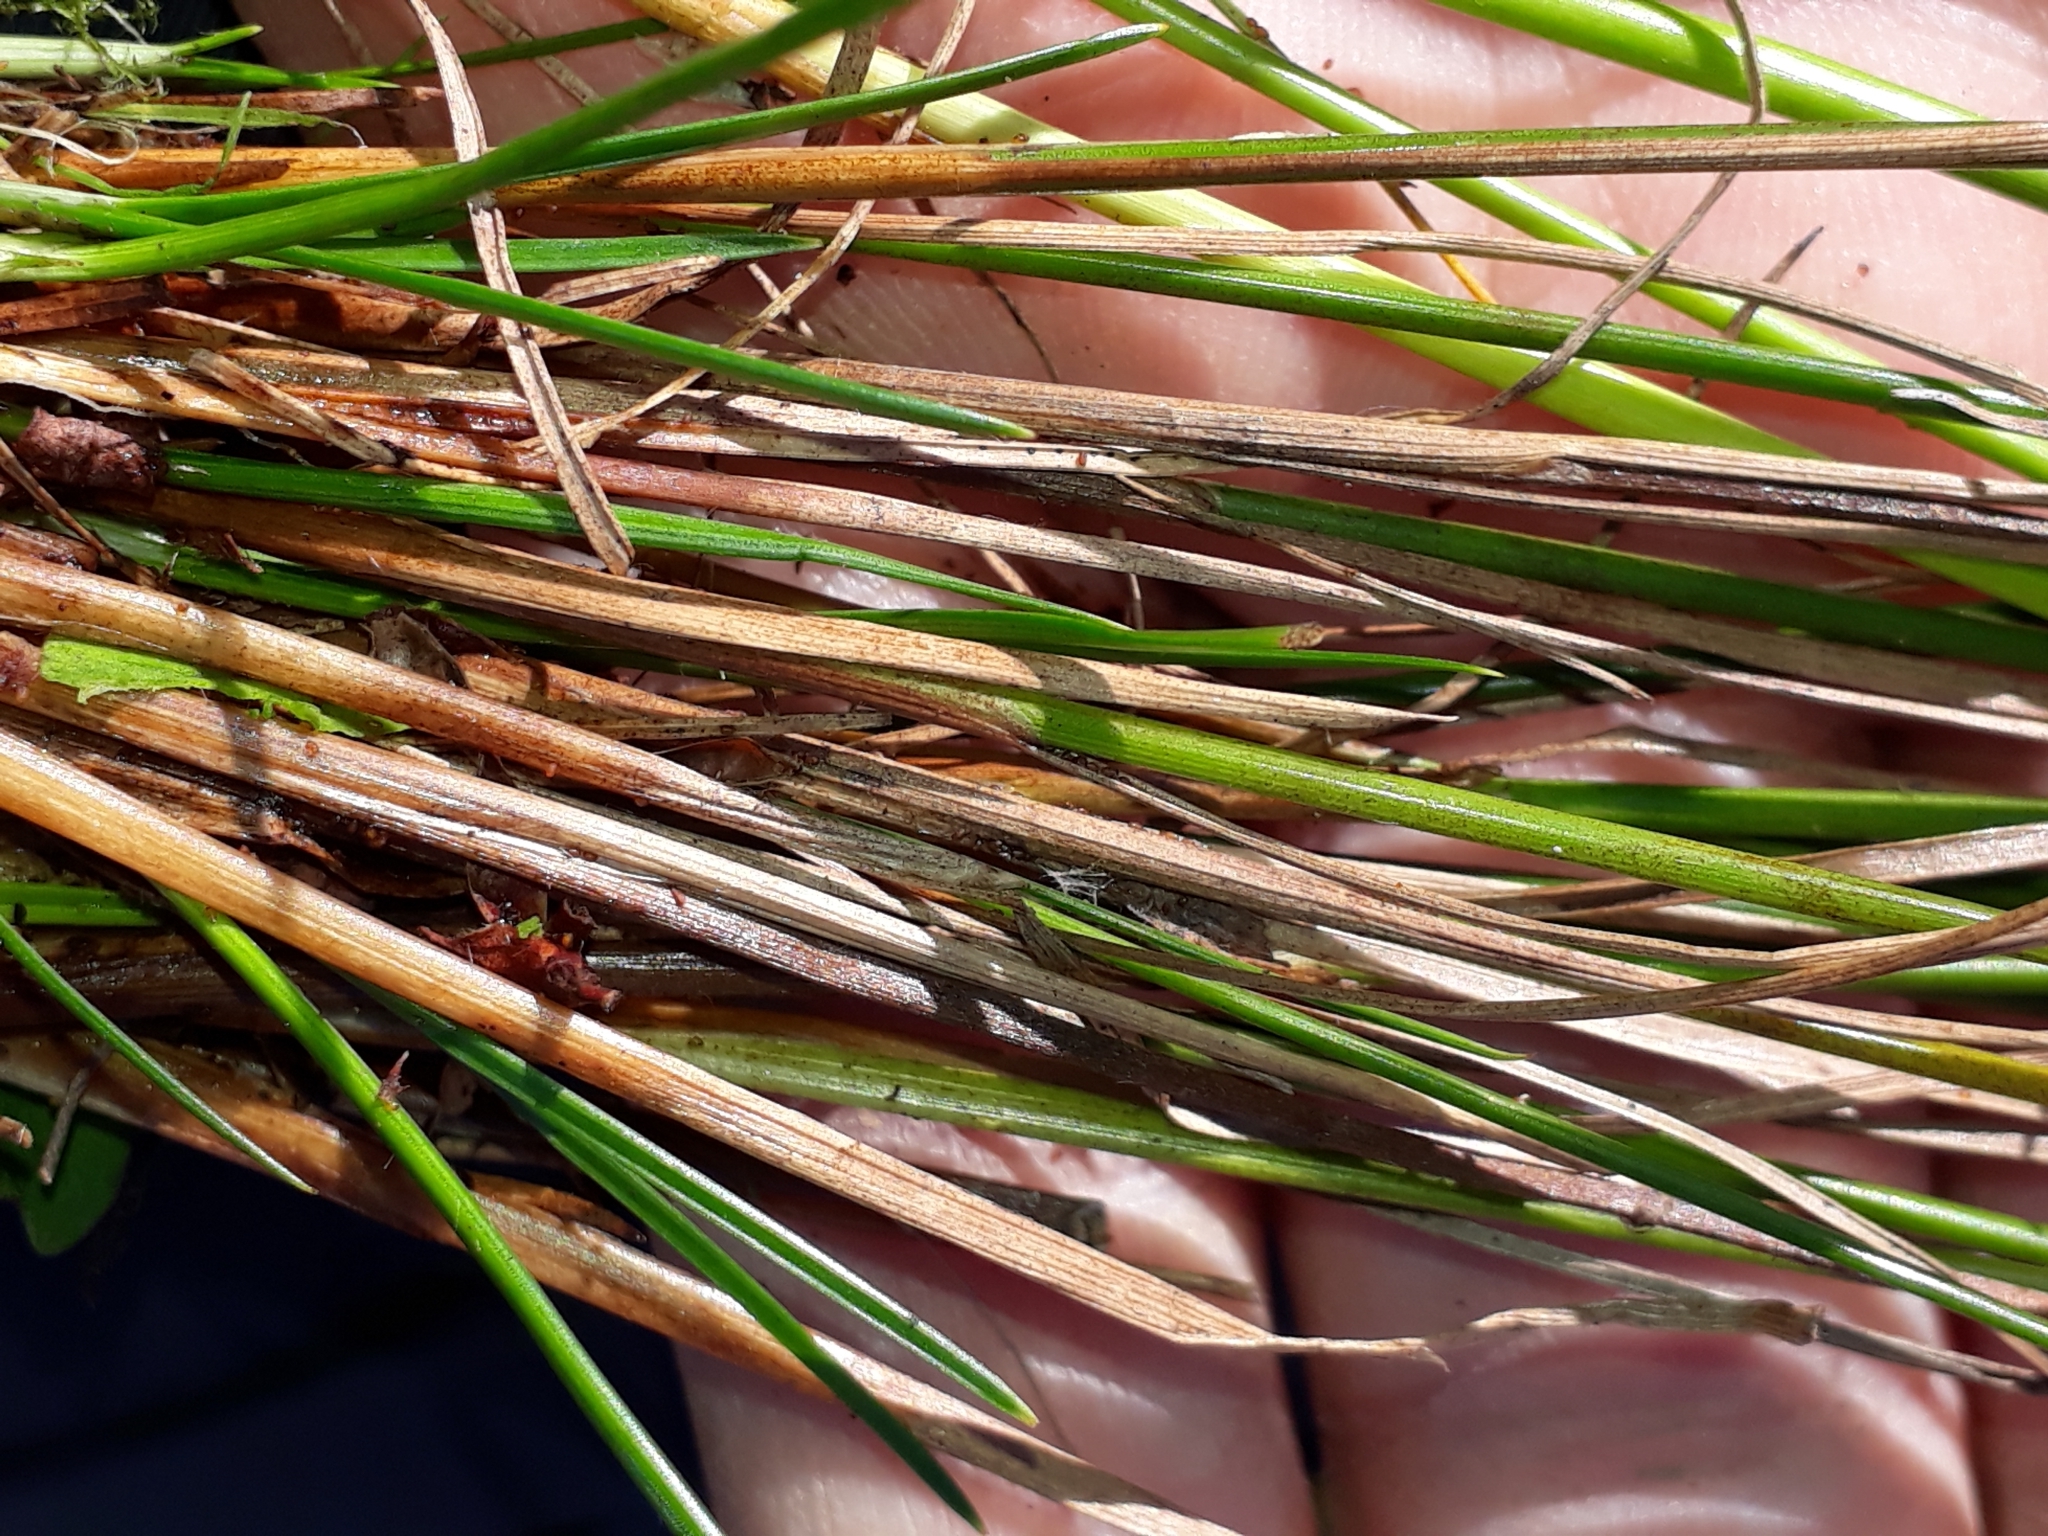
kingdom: Plantae
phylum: Tracheophyta
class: Liliopsida
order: Poales
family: Juncaceae
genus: Juncus
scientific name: Juncus dichotomus
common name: Forked rush
